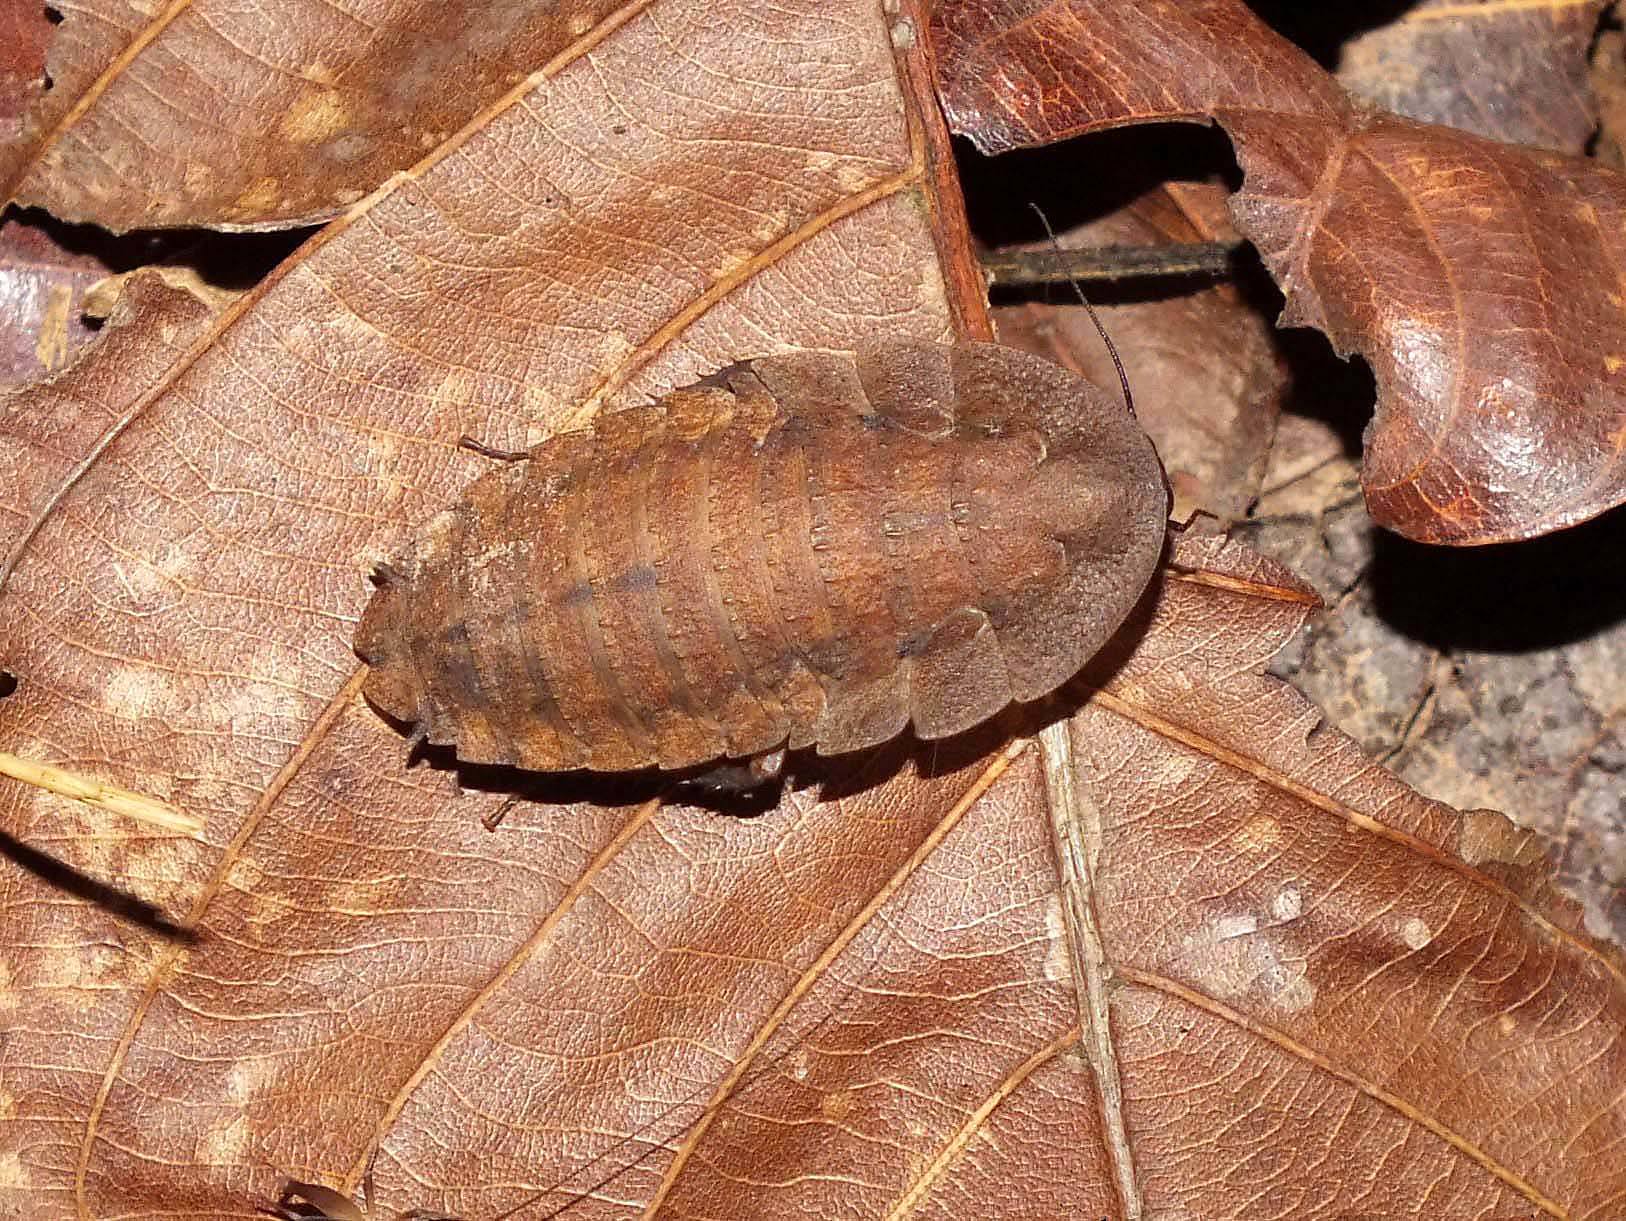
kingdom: Animalia
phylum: Arthropoda
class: Insecta
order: Blattodea
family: Blaberidae
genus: Rhicnoda
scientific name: Rhicnoda desidiosa
